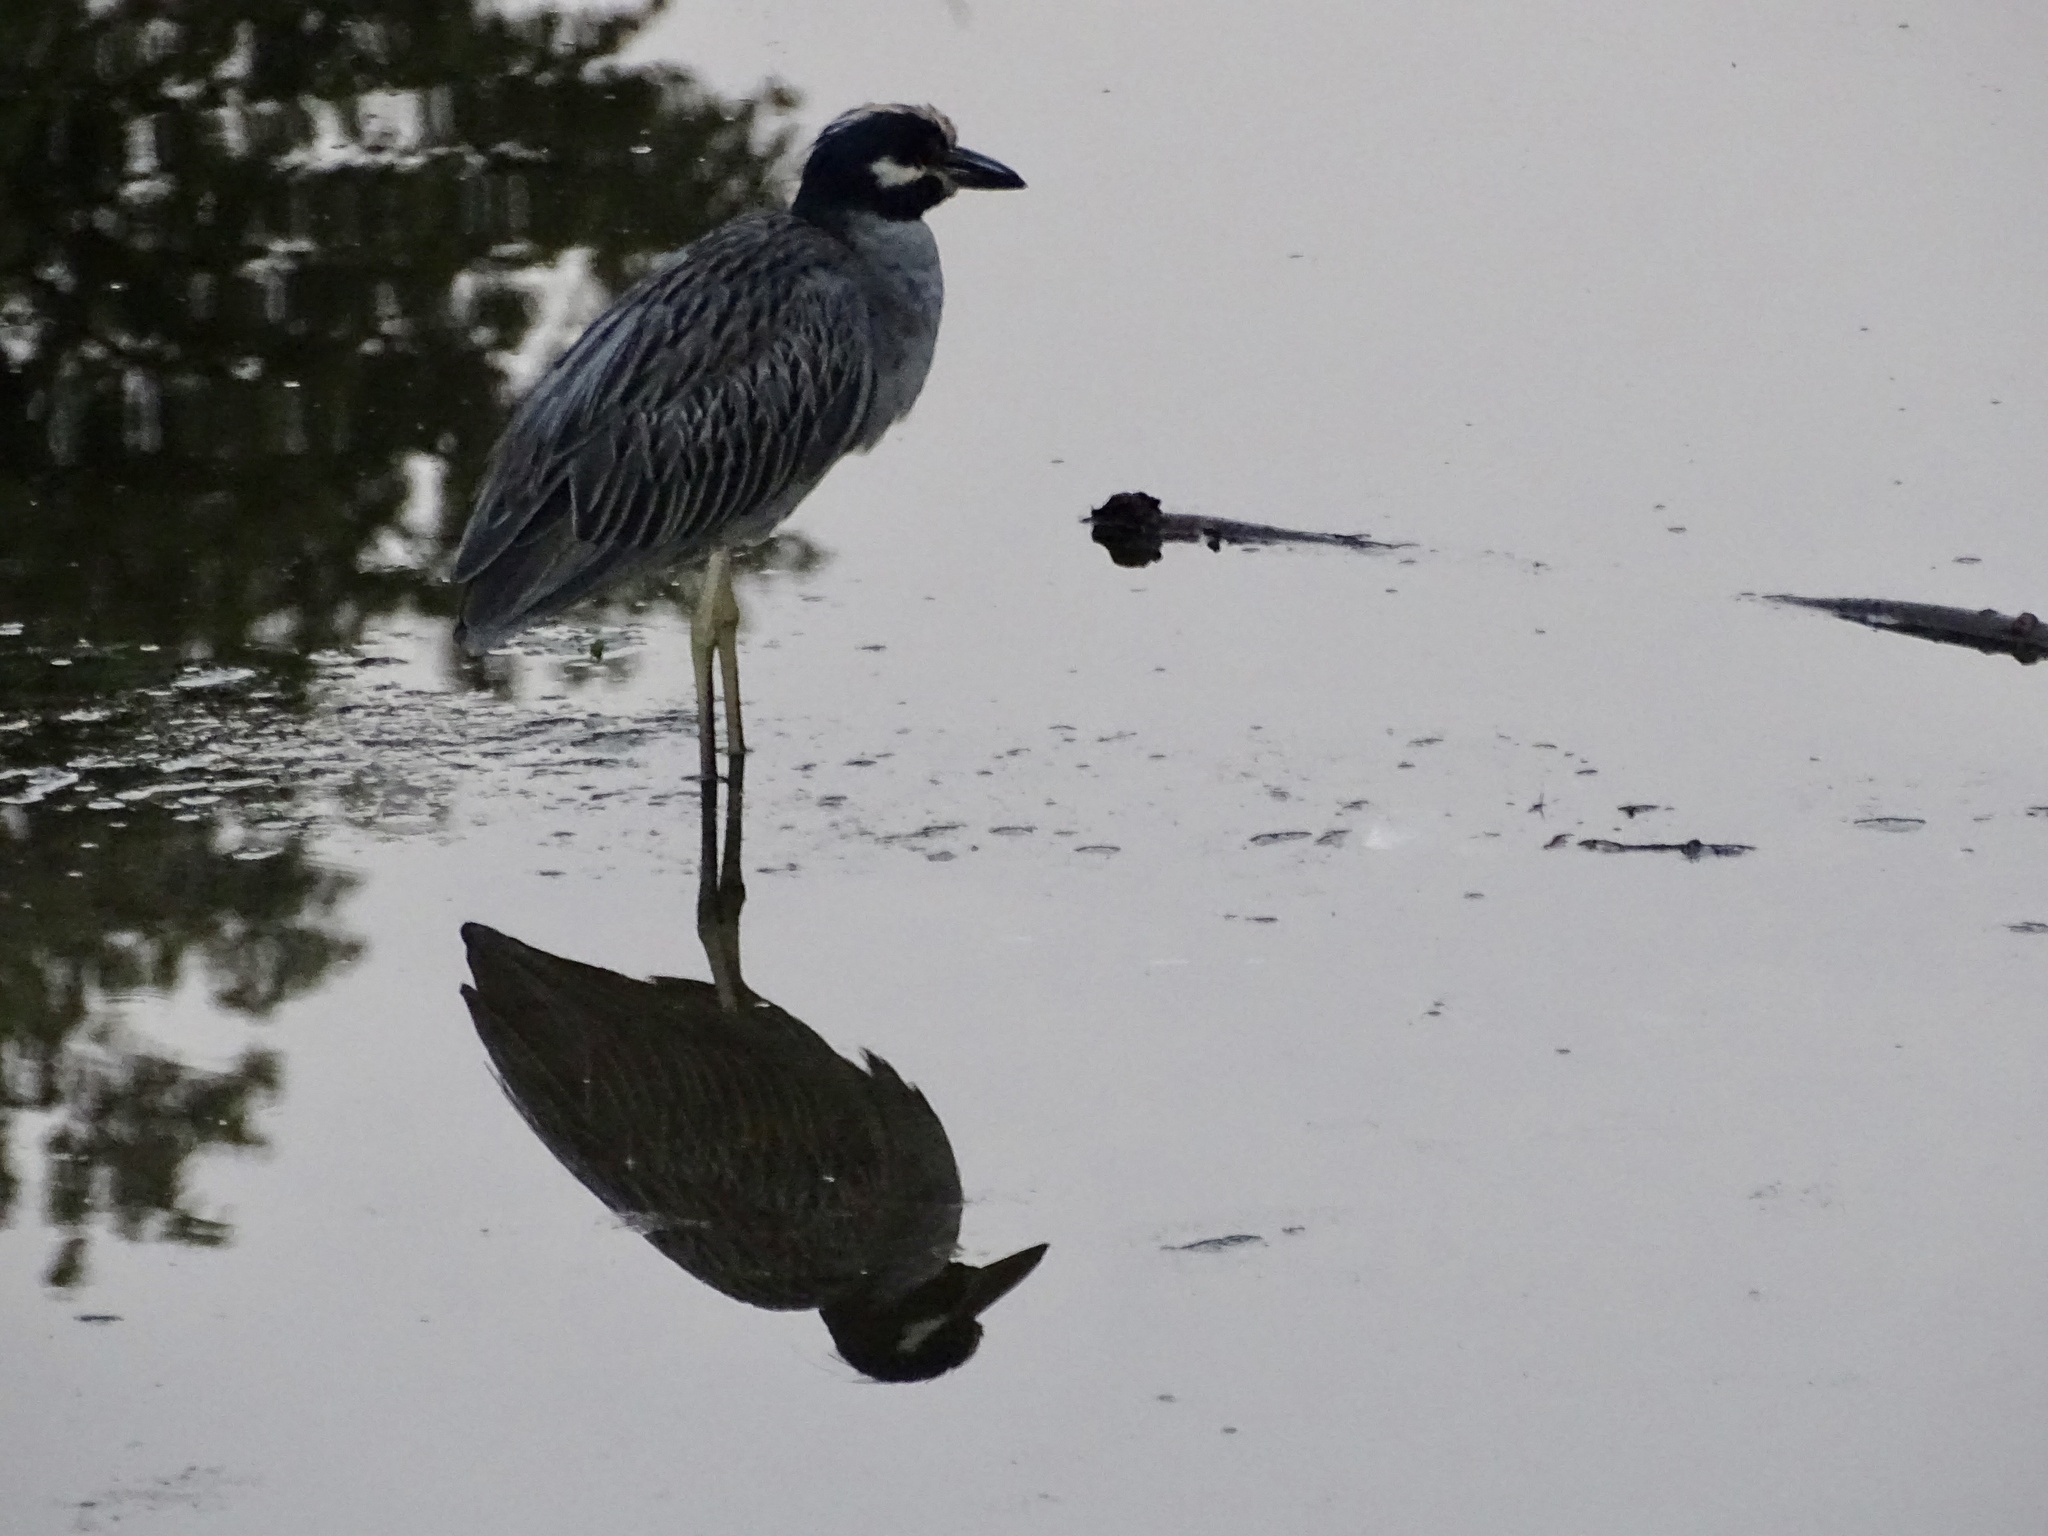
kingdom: Animalia
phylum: Chordata
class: Aves
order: Pelecaniformes
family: Ardeidae
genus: Nyctanassa
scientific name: Nyctanassa violacea
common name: Yellow-crowned night heron
